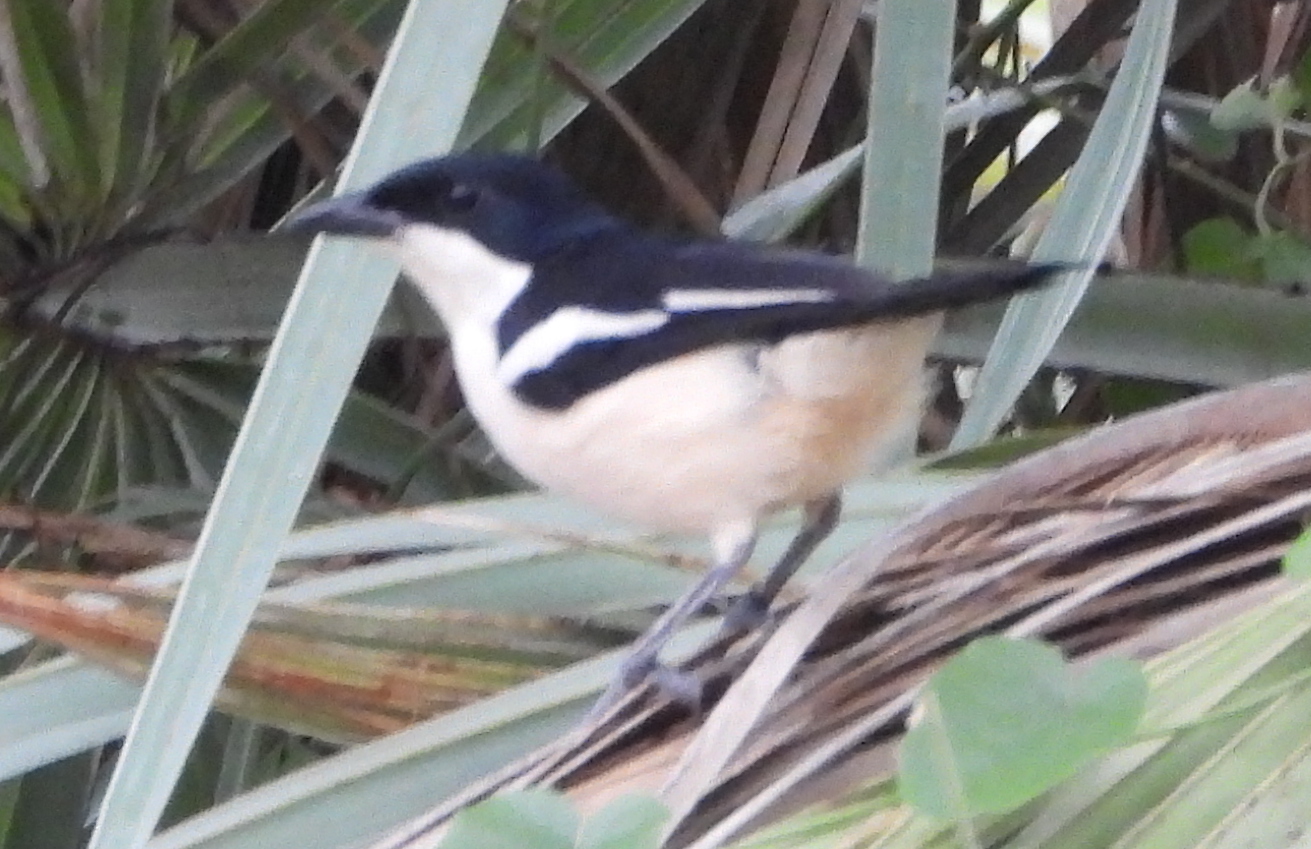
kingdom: Animalia
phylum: Chordata
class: Aves
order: Passeriformes
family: Malaconotidae
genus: Laniarius
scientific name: Laniarius major
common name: Tropical boubou
